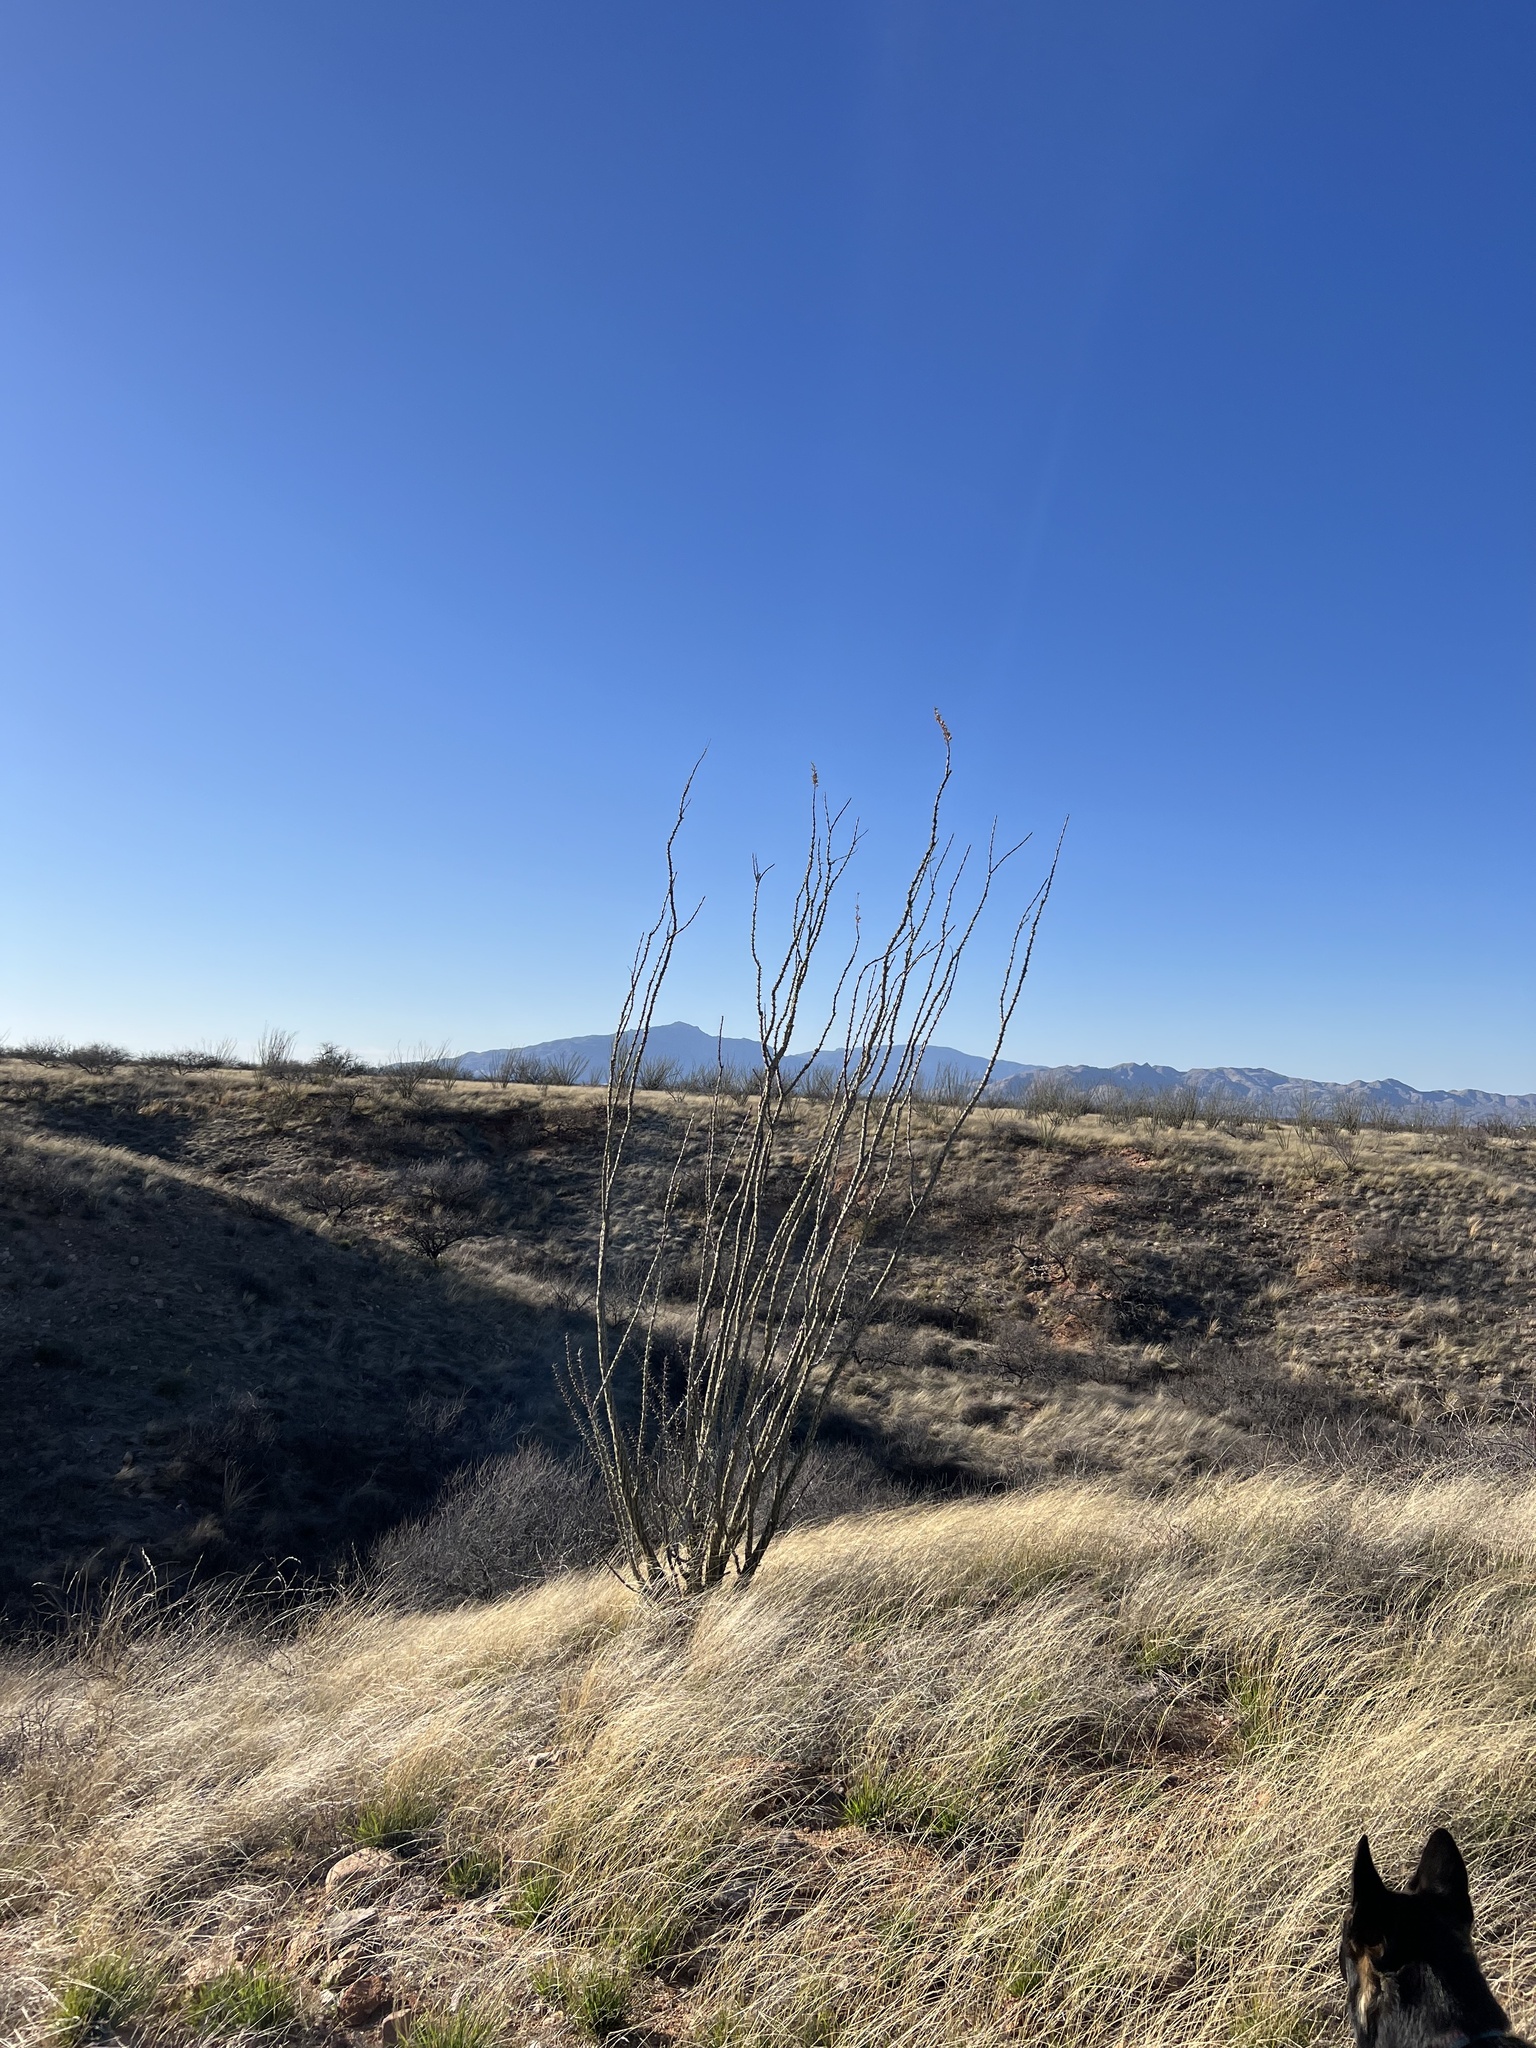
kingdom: Plantae
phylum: Tracheophyta
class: Magnoliopsida
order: Ericales
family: Fouquieriaceae
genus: Fouquieria
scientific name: Fouquieria splendens
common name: Vine-cactus
